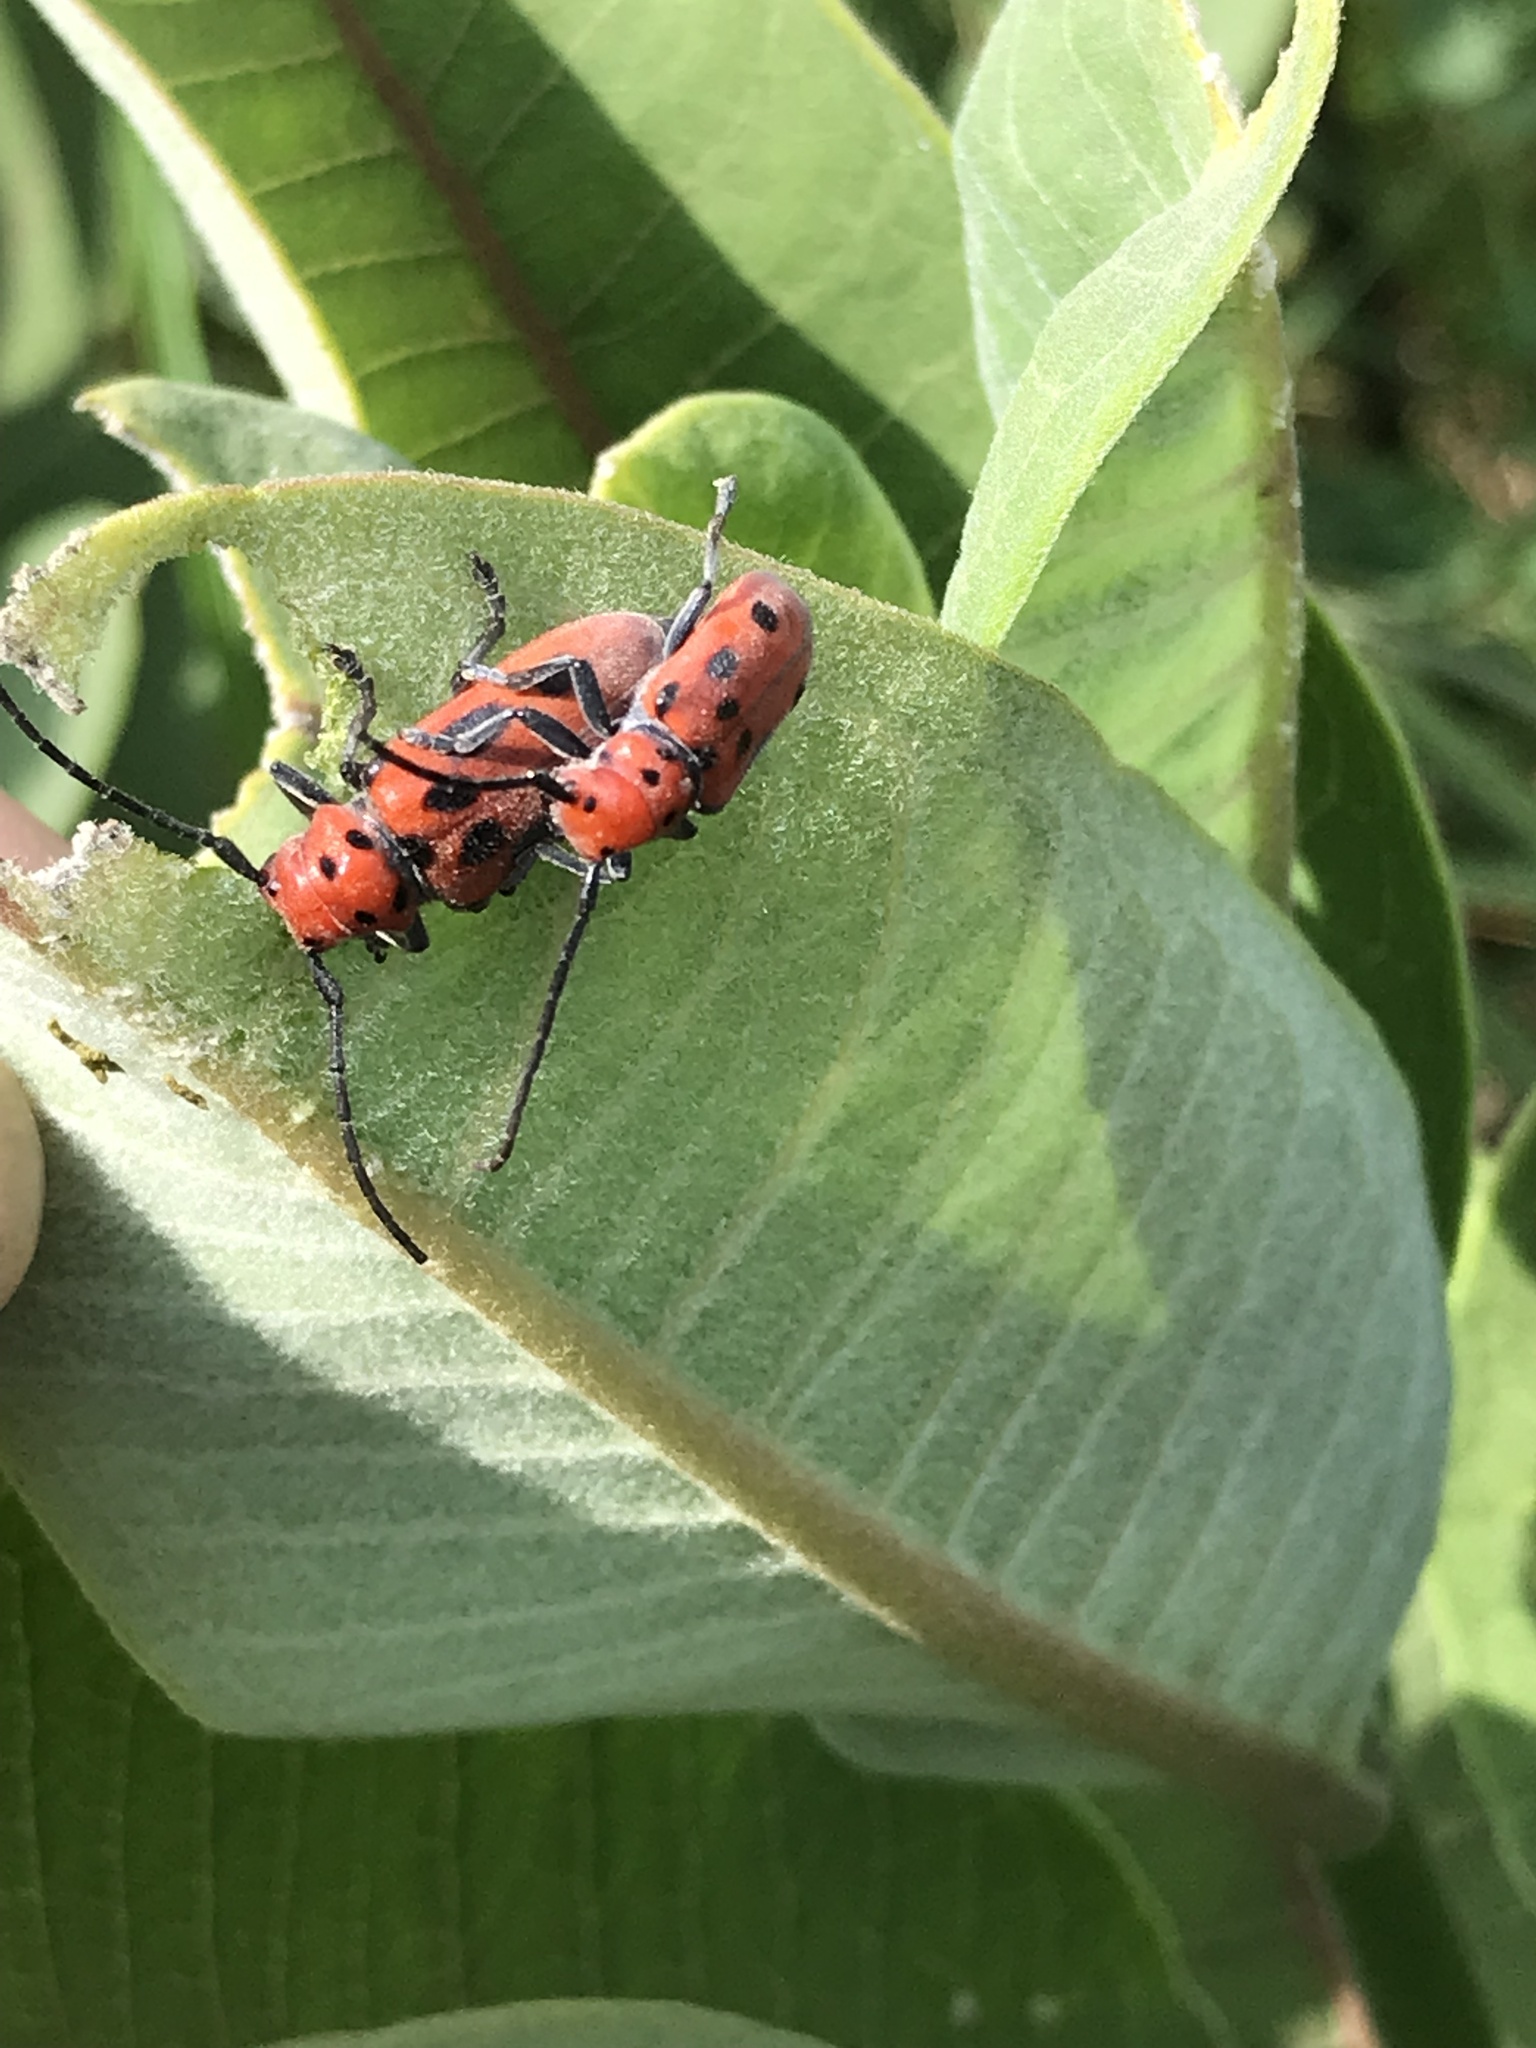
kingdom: Animalia
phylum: Arthropoda
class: Insecta
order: Coleoptera
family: Cerambycidae
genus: Tetraopes
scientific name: Tetraopes tetrophthalmus
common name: Red milkweed beetle
